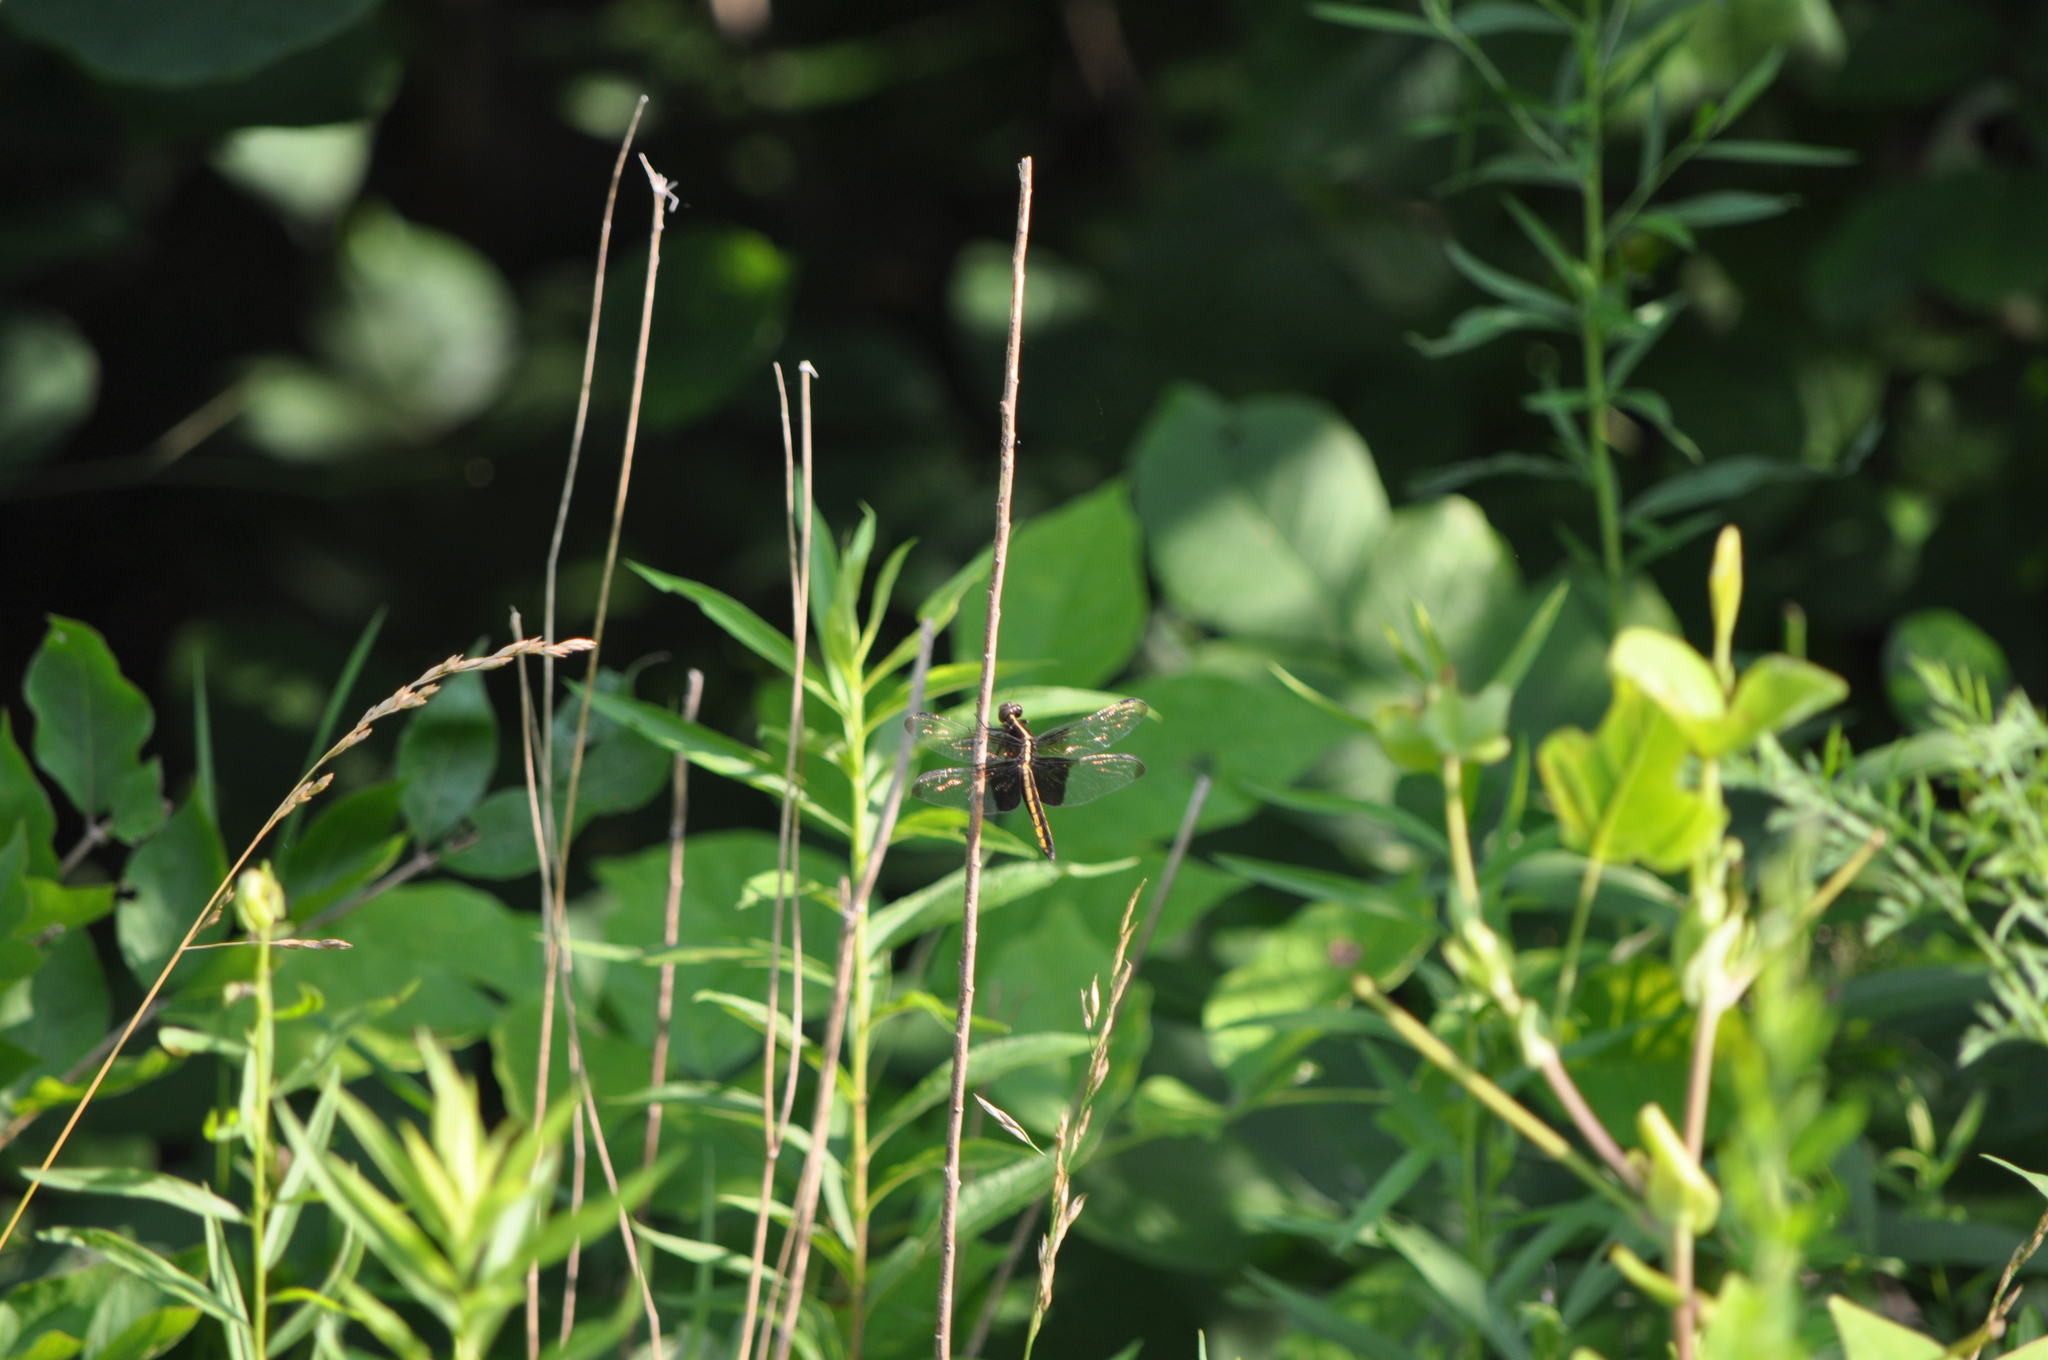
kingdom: Animalia
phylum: Arthropoda
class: Insecta
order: Odonata
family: Libellulidae
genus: Libellula
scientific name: Libellula luctuosa
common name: Widow skimmer
